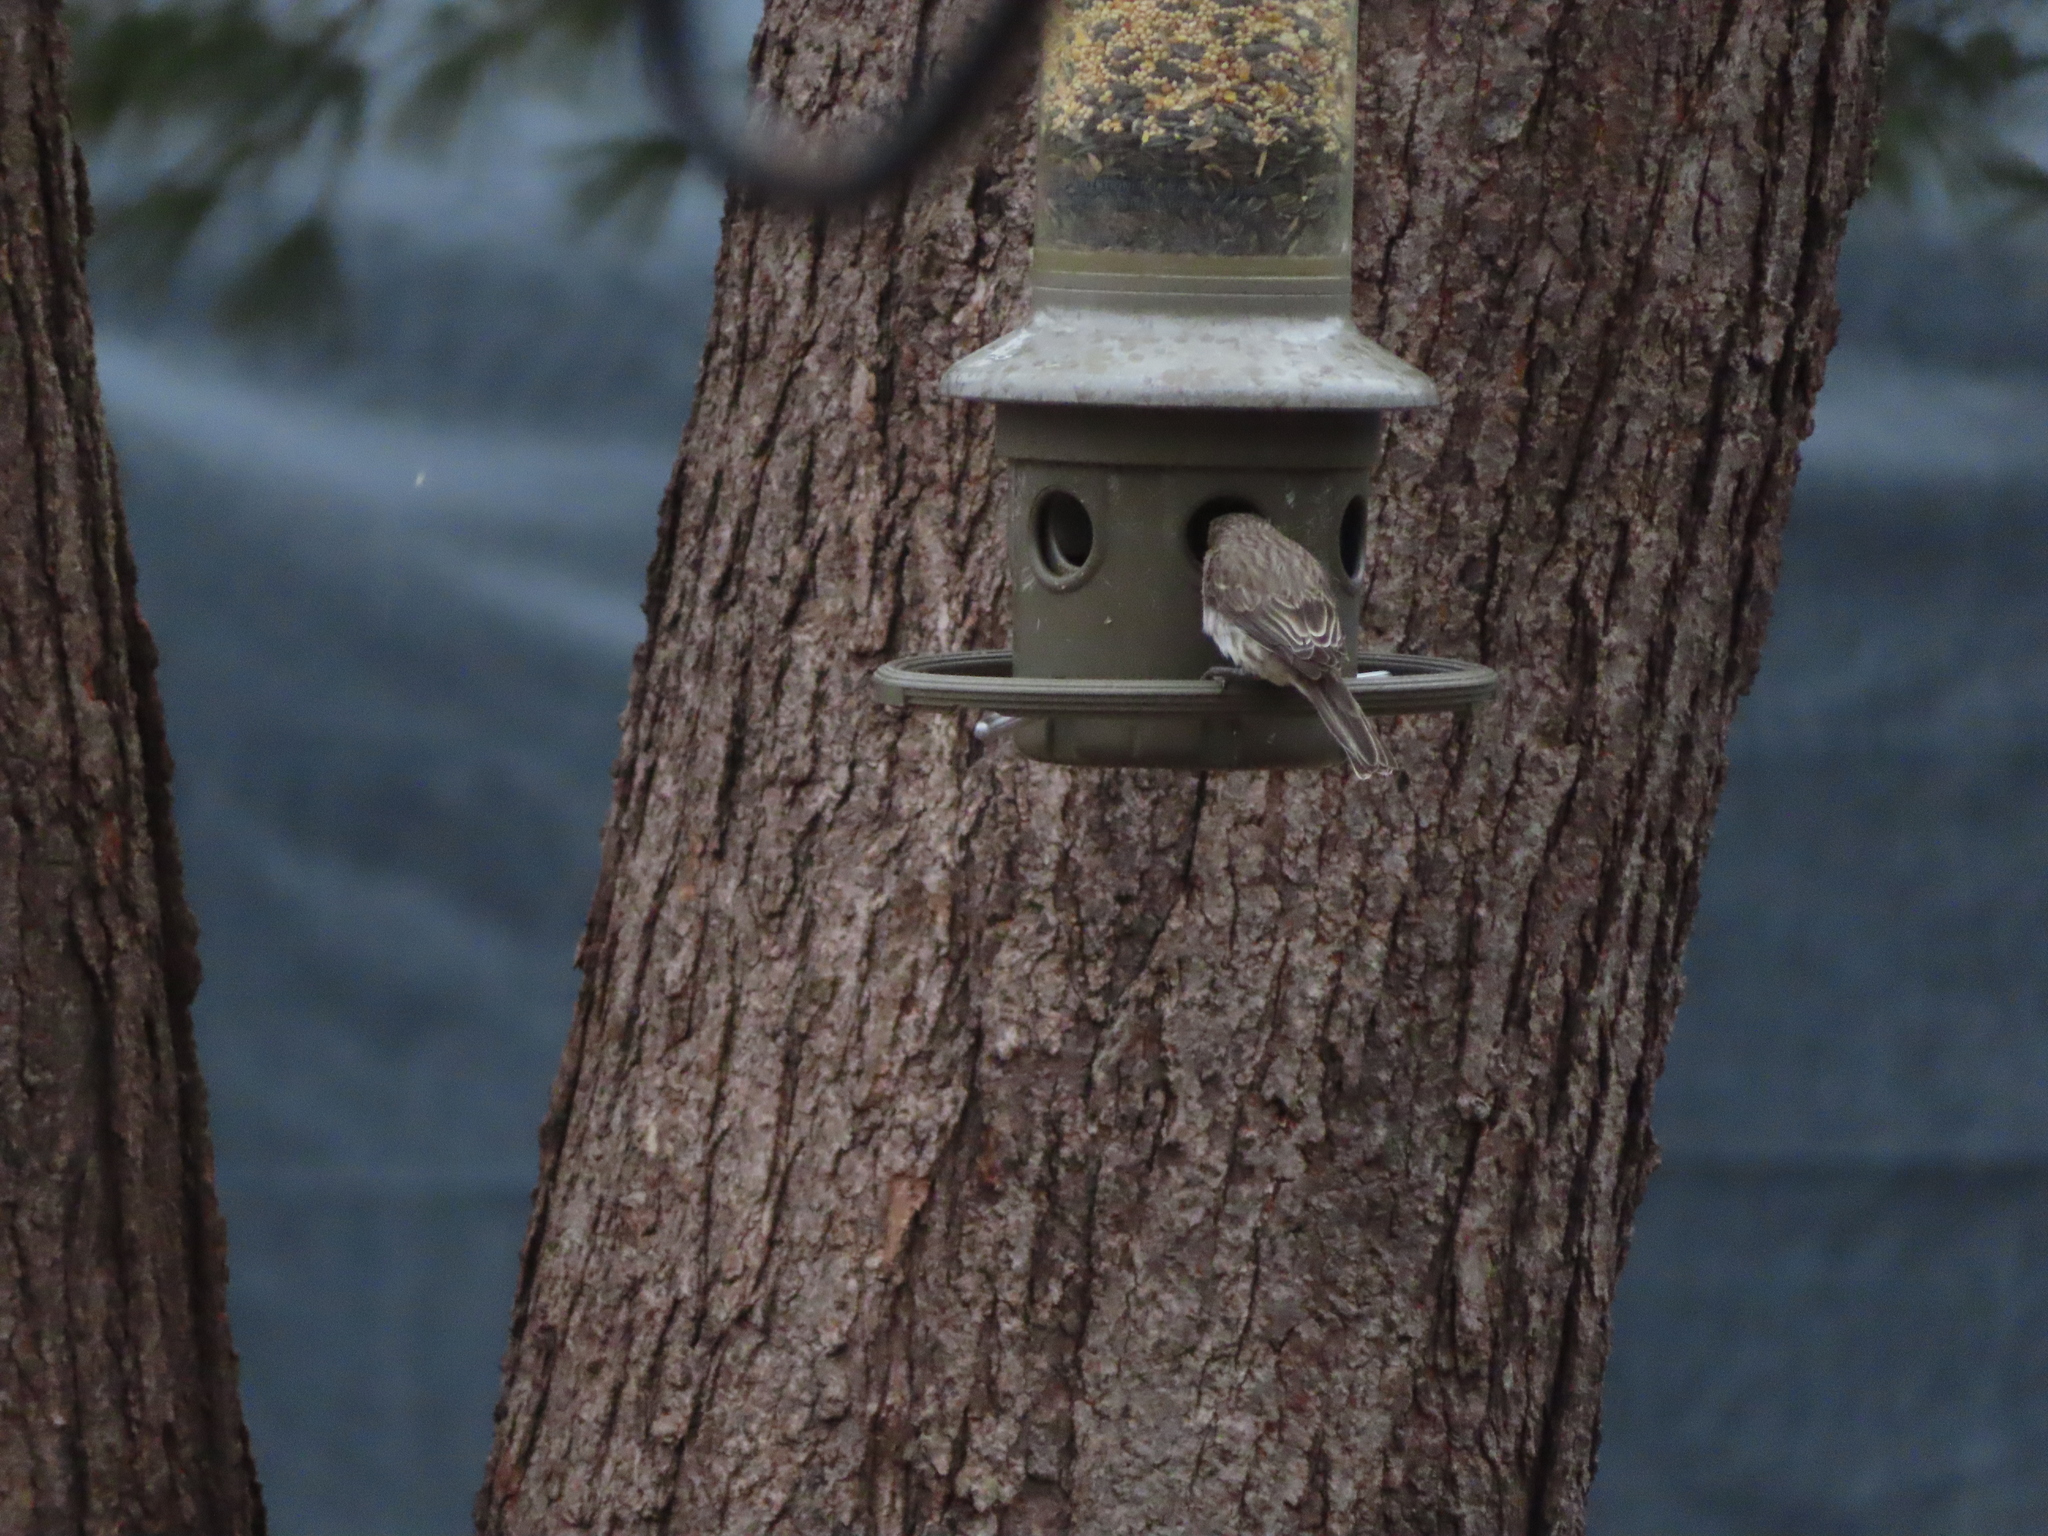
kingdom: Animalia
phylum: Chordata
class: Aves
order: Passeriformes
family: Fringillidae
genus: Haemorhous
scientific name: Haemorhous mexicanus
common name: House finch
